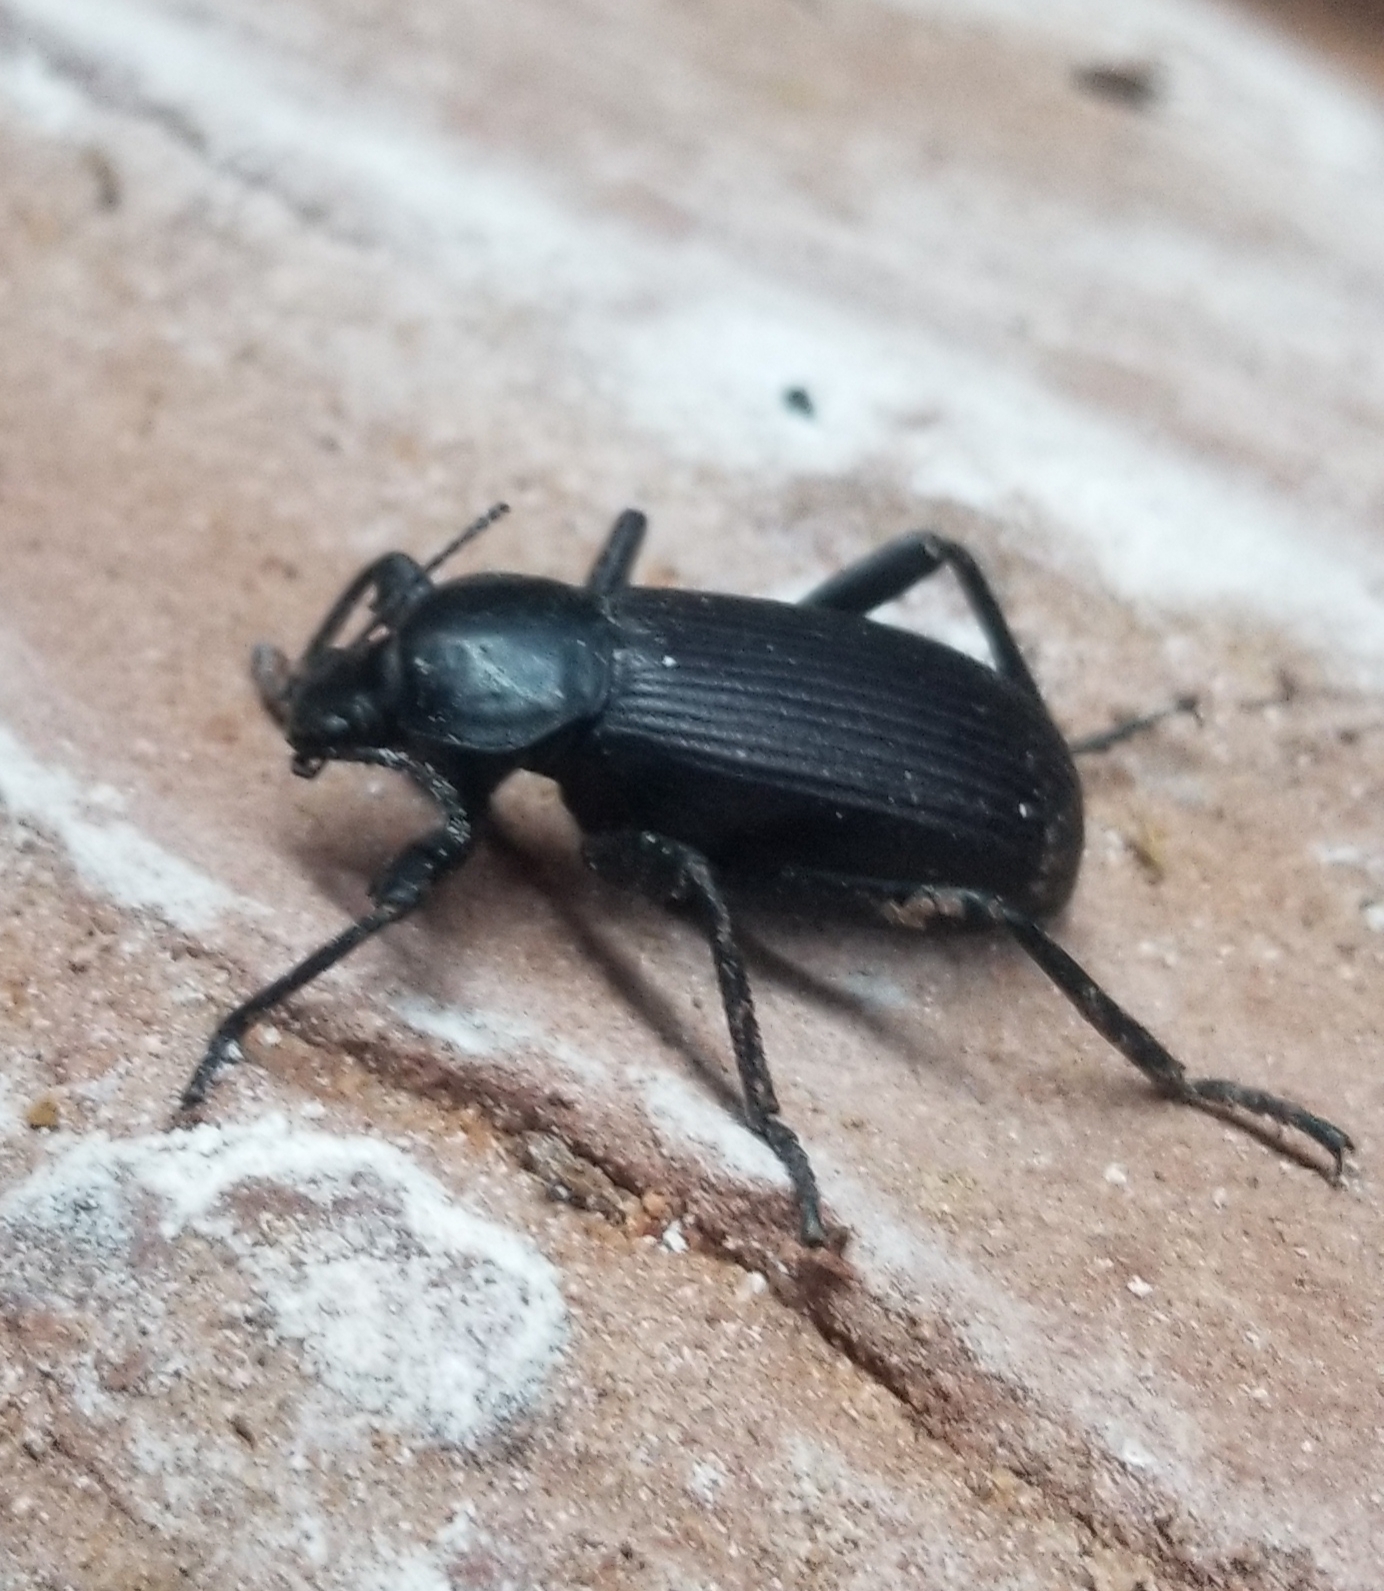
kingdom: Animalia
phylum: Arthropoda
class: Insecta
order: Coleoptera
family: Tenebrionidae
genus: Eleodes
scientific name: Eleodes obscura
